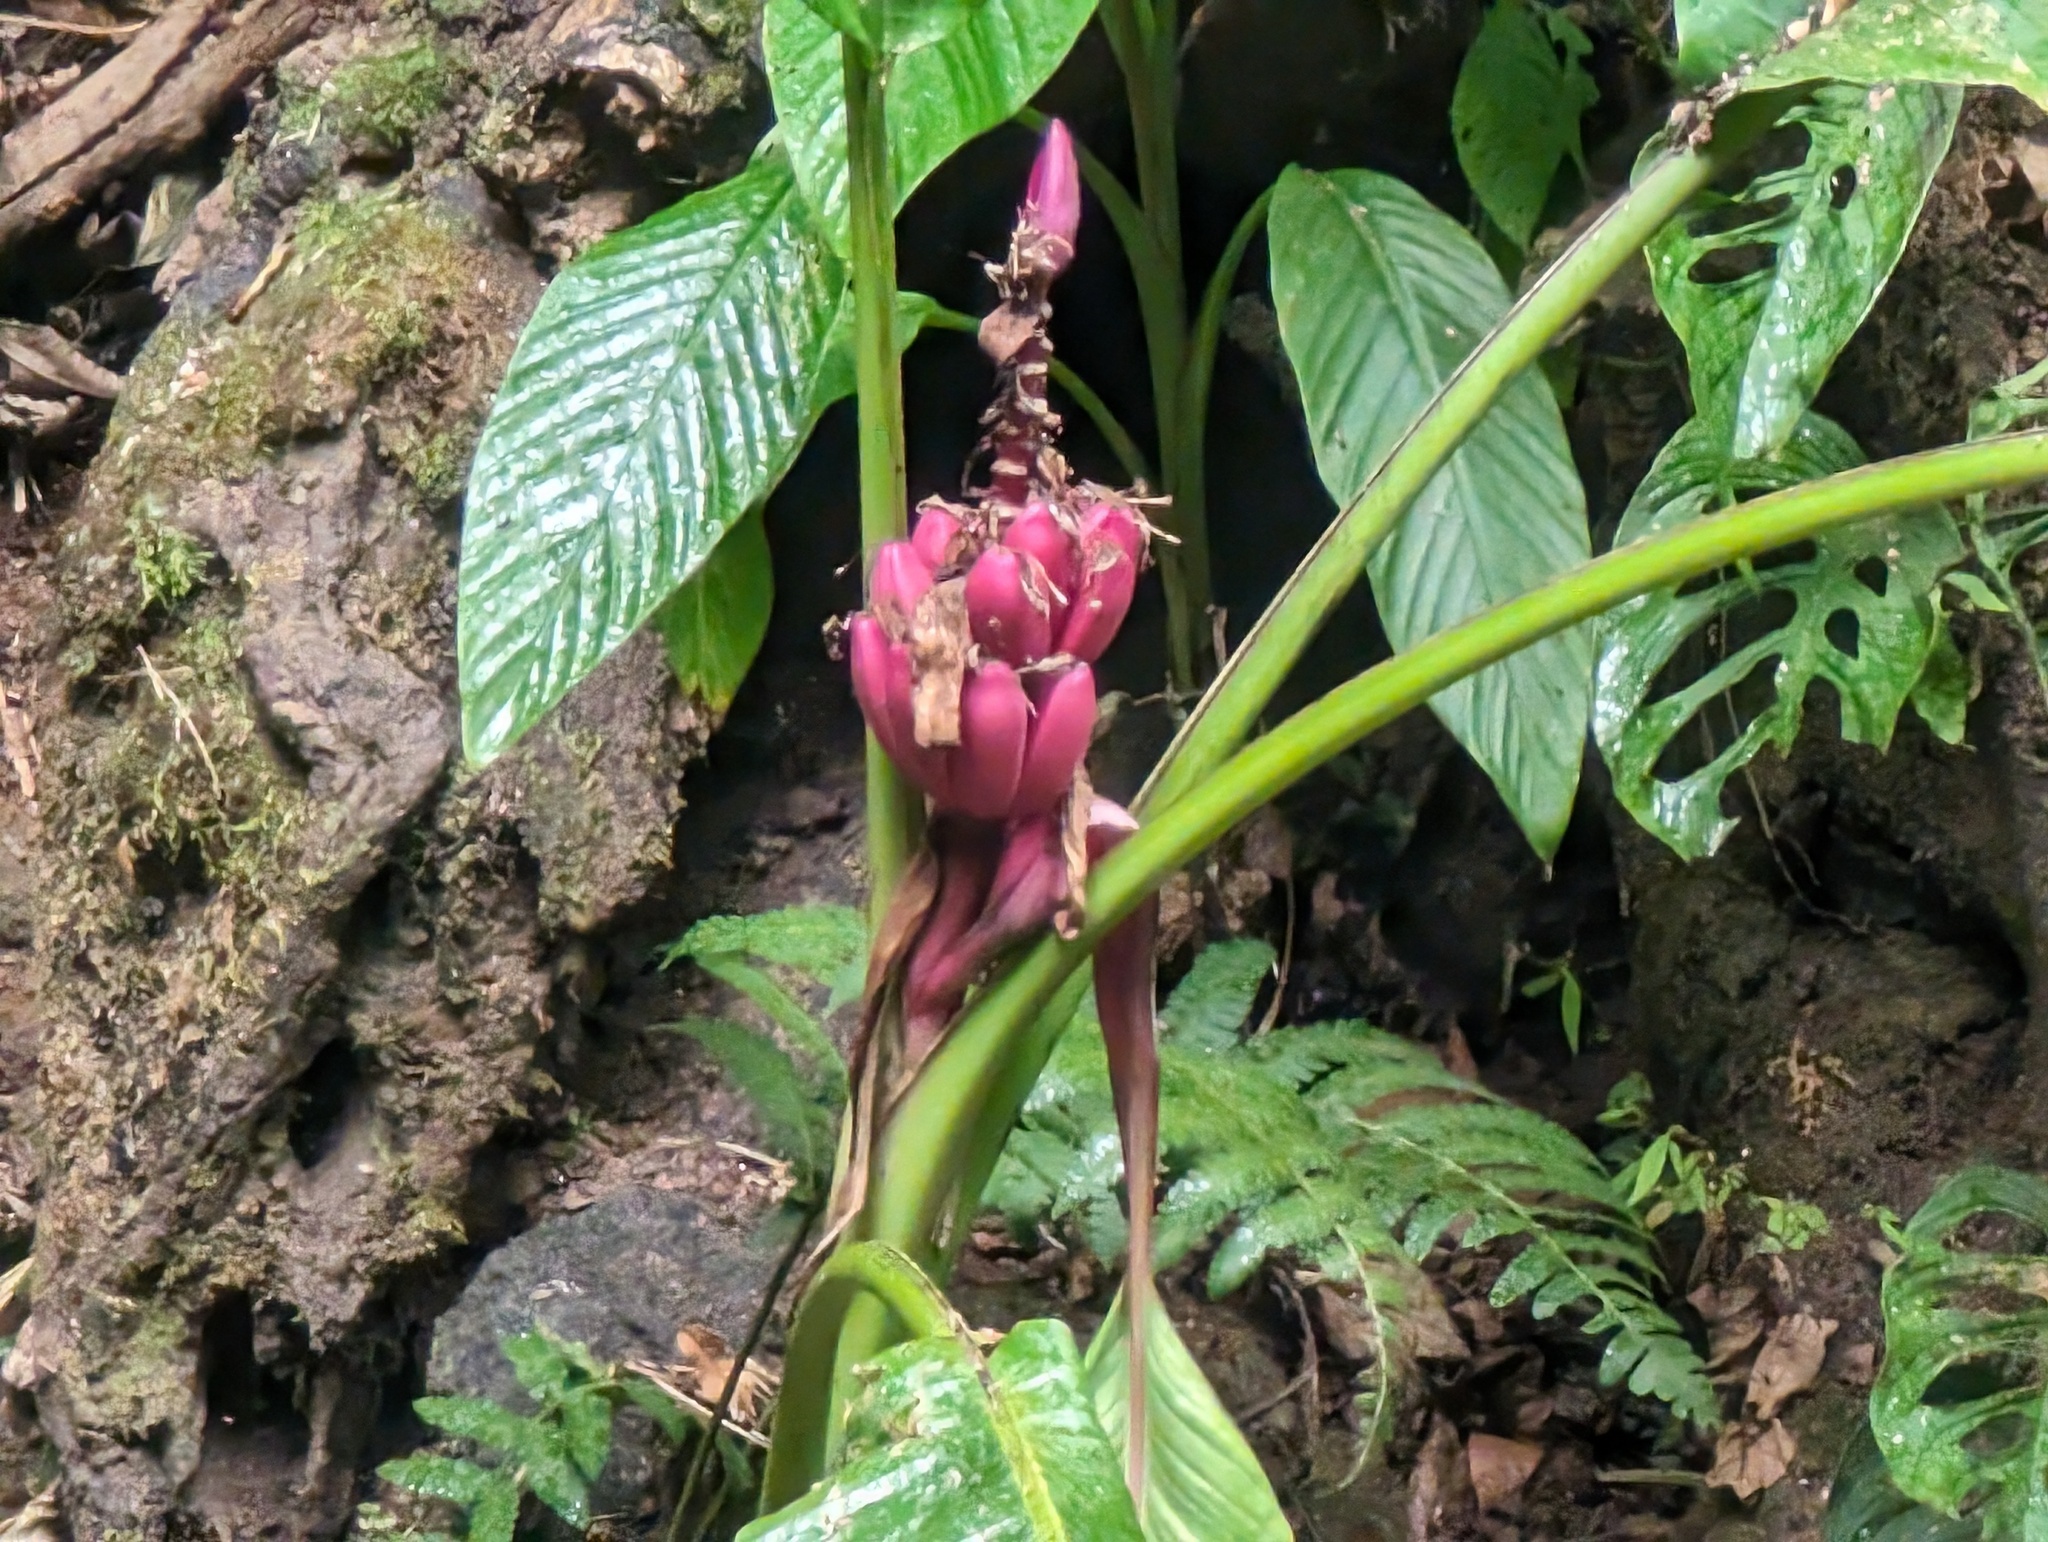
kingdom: Plantae
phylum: Tracheophyta
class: Liliopsida
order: Zingiberales
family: Musaceae
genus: Musa
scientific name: Musa velutina
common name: Pink velvet banana
